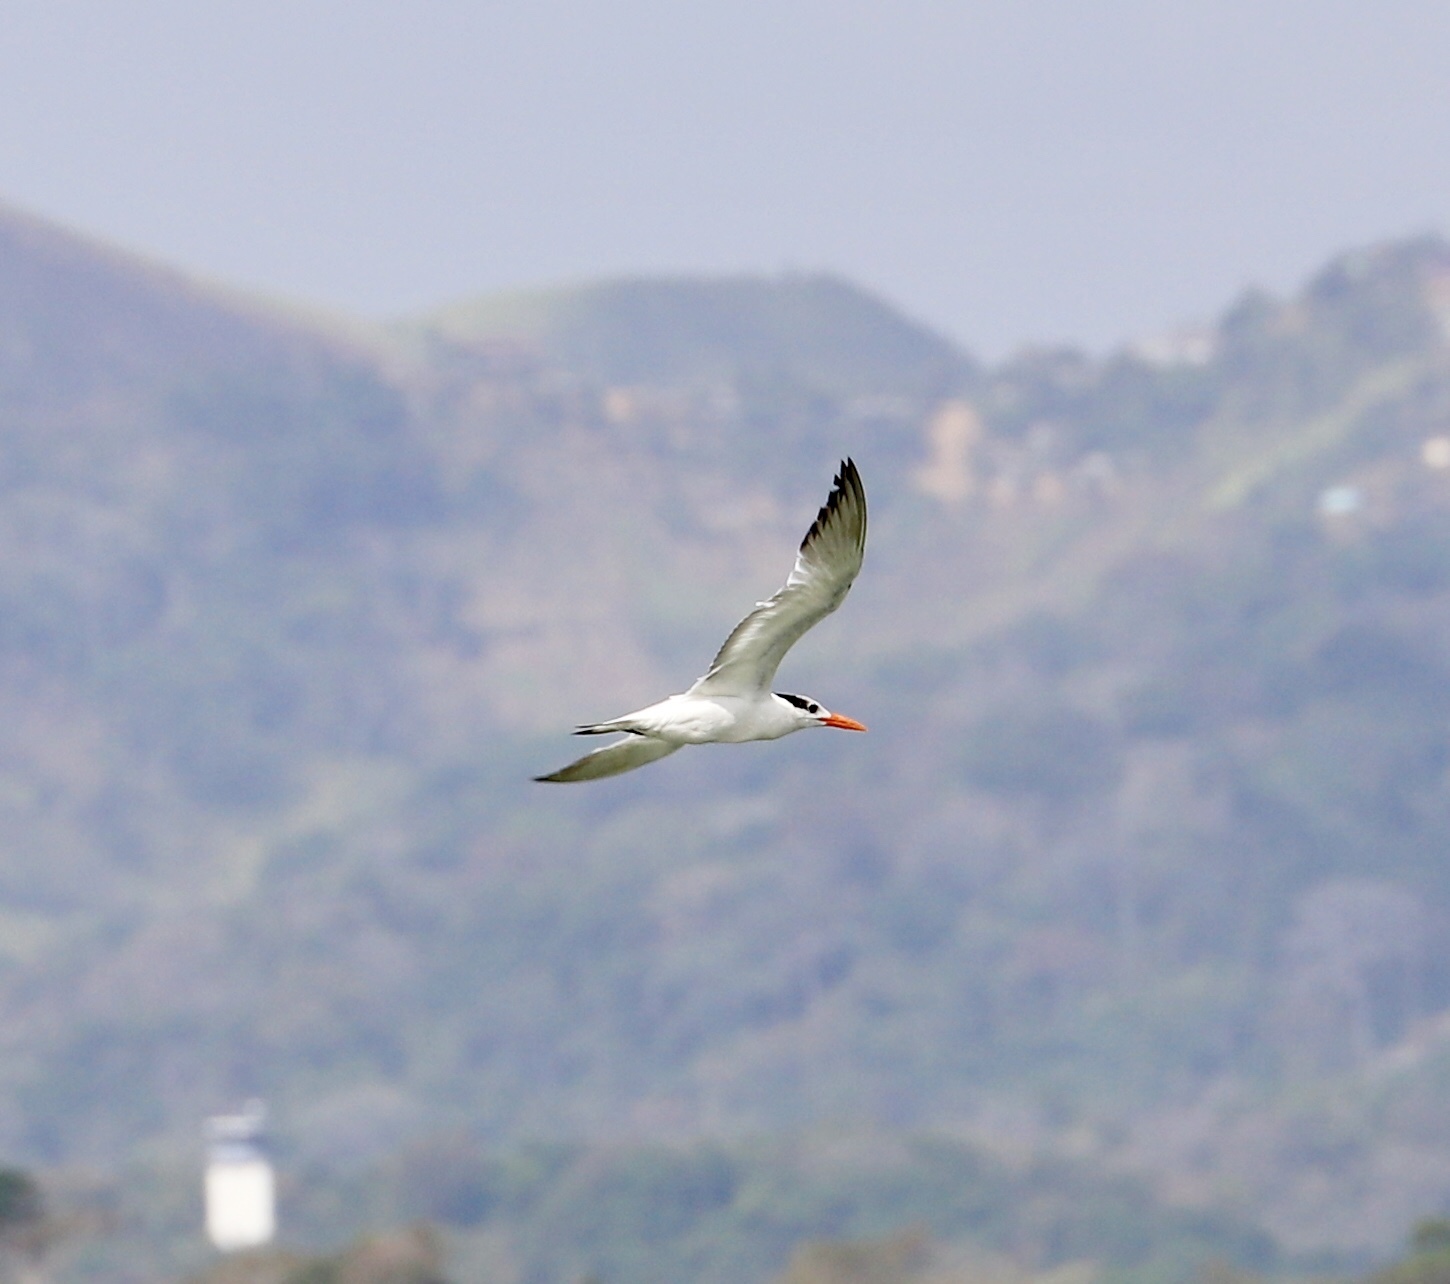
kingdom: Animalia
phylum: Chordata
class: Aves
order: Charadriiformes
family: Laridae
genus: Thalasseus
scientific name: Thalasseus maximus
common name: Royal tern
